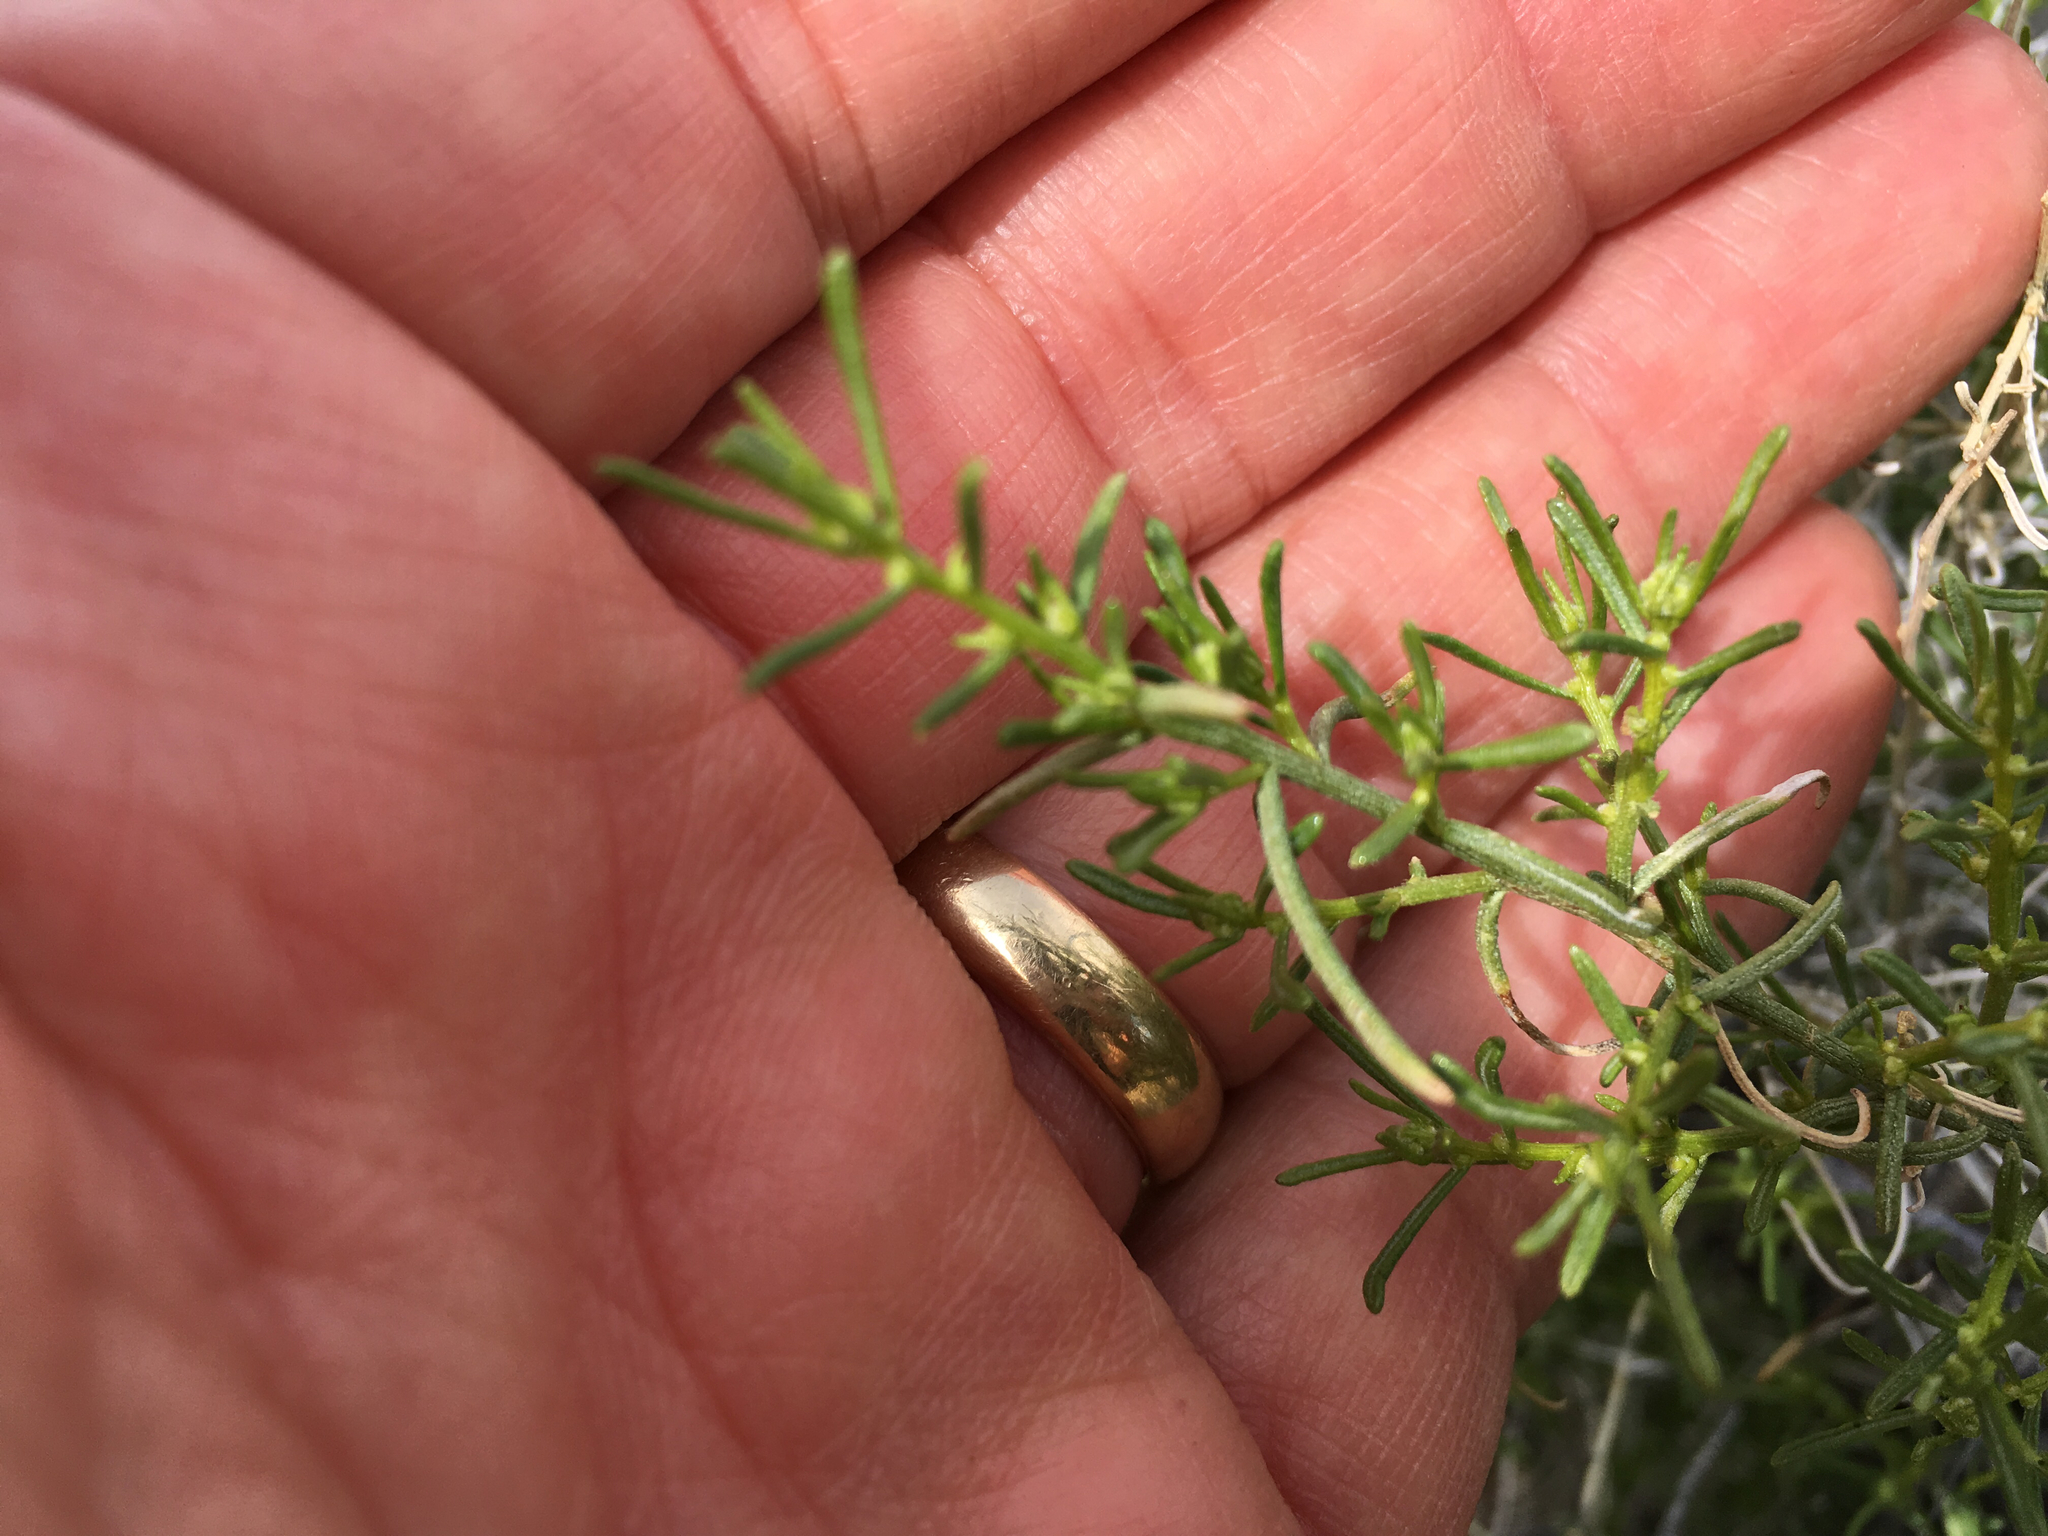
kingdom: Plantae
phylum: Tracheophyta
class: Magnoliopsida
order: Asterales
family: Asteraceae
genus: Ambrosia
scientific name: Ambrosia salsola
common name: Burrobrush
